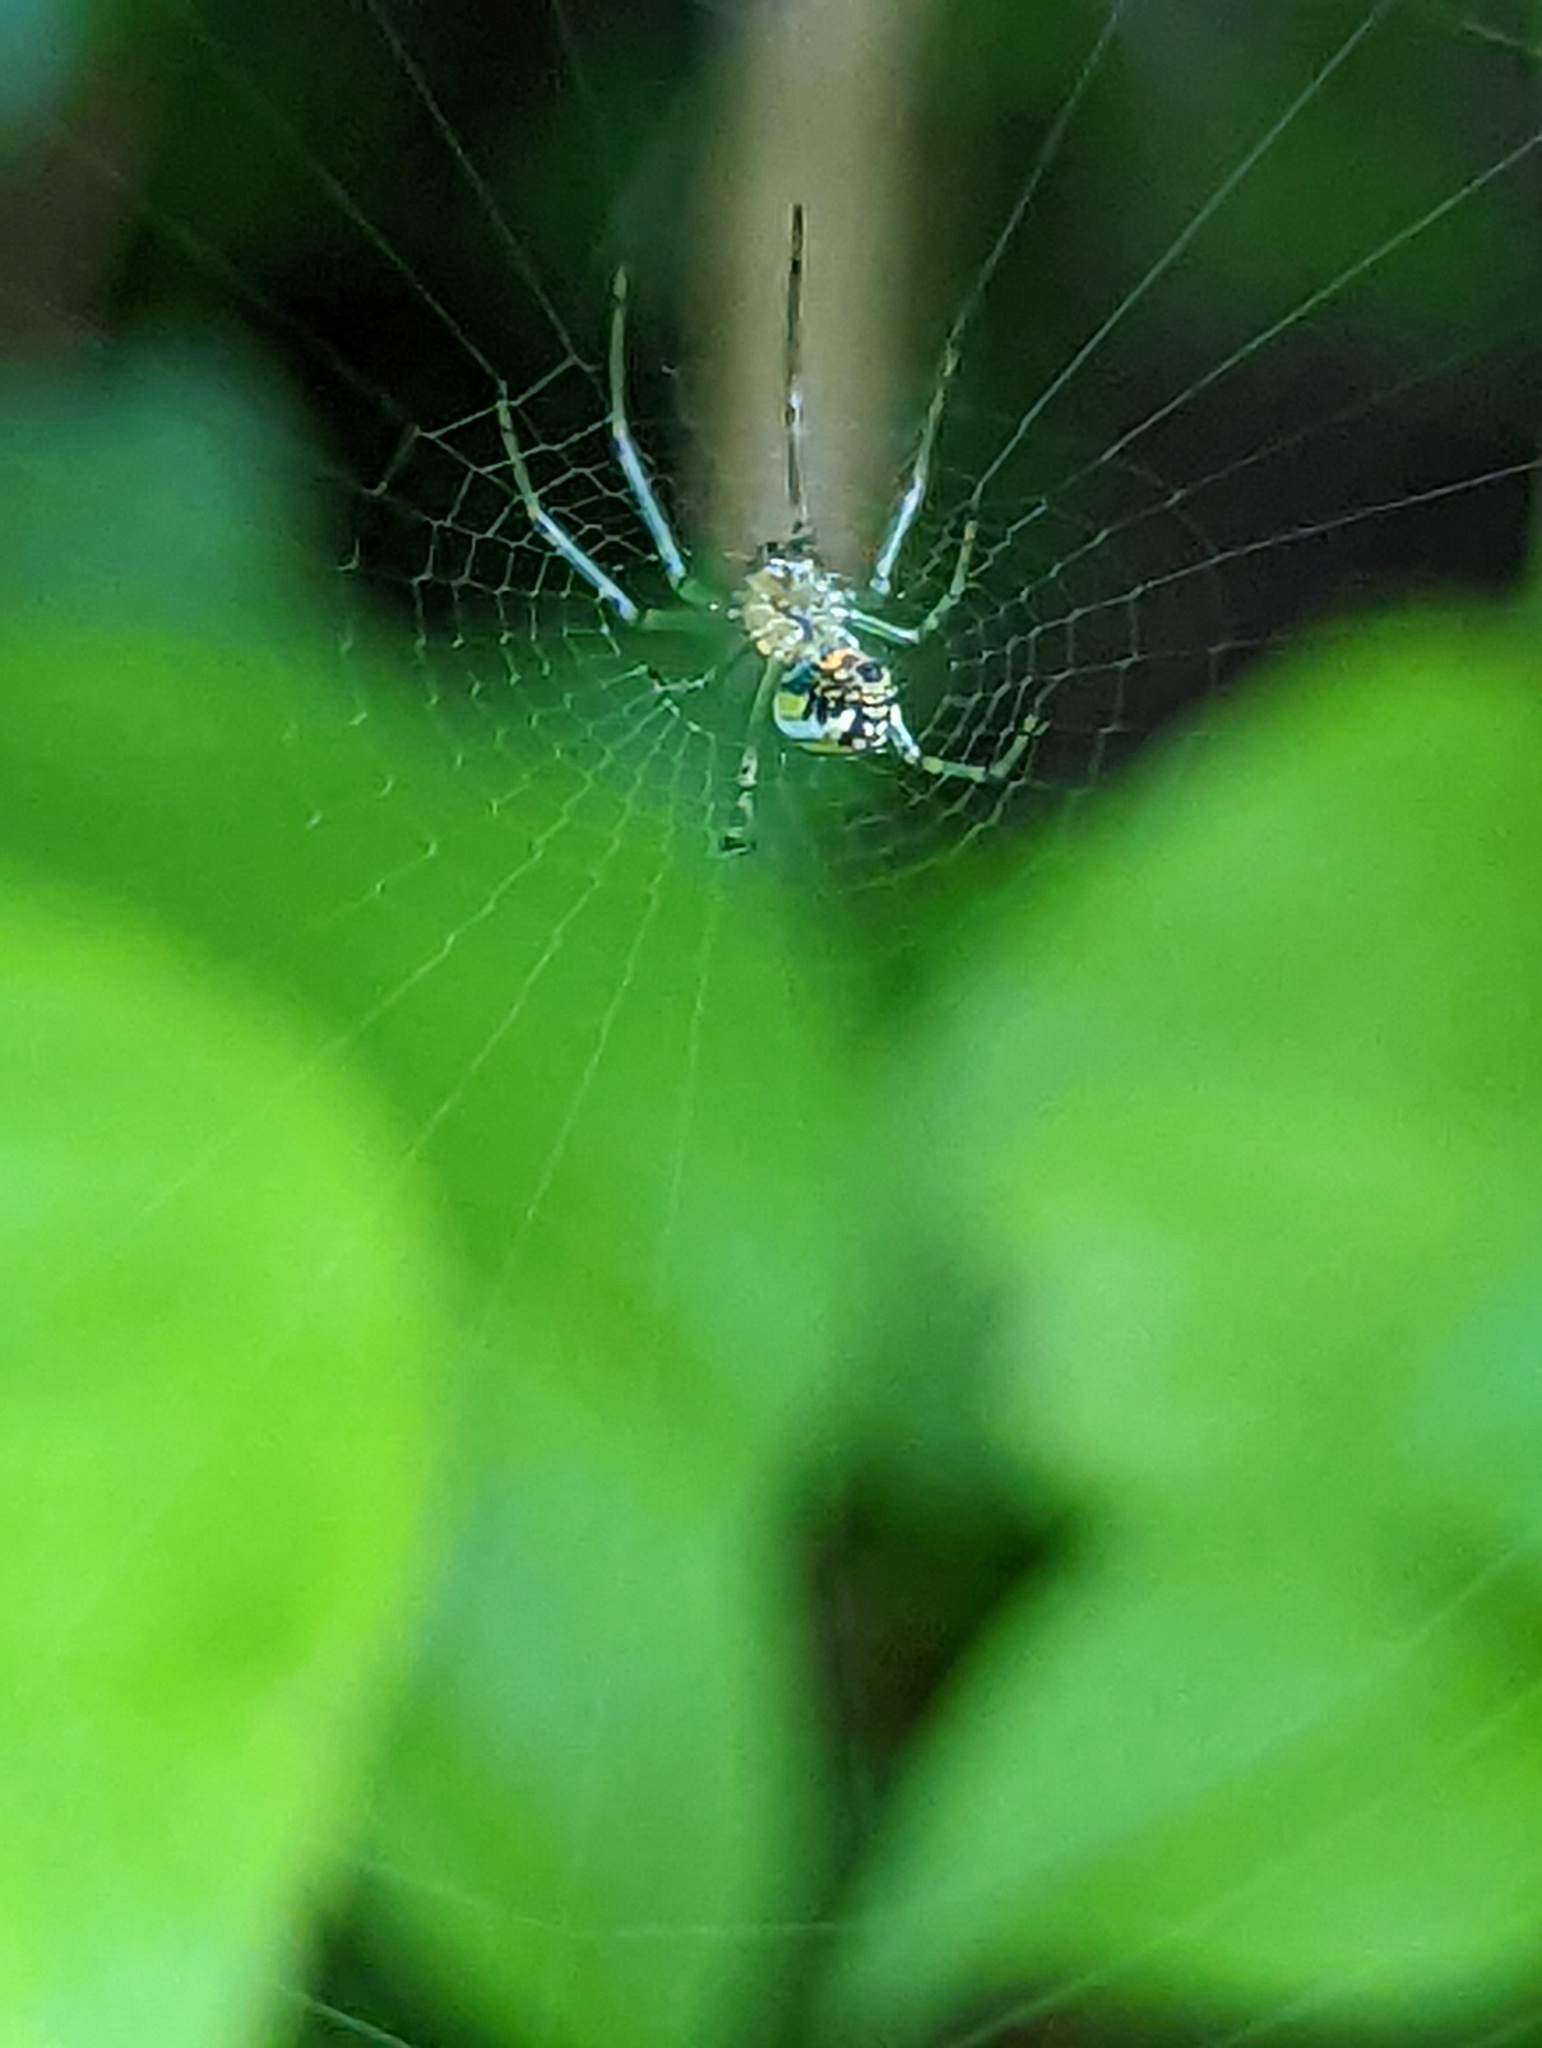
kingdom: Animalia
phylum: Arthropoda
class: Arachnida
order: Araneae
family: Tetragnathidae
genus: Leucauge
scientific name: Leucauge venusta
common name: Longjawed orb weavers
